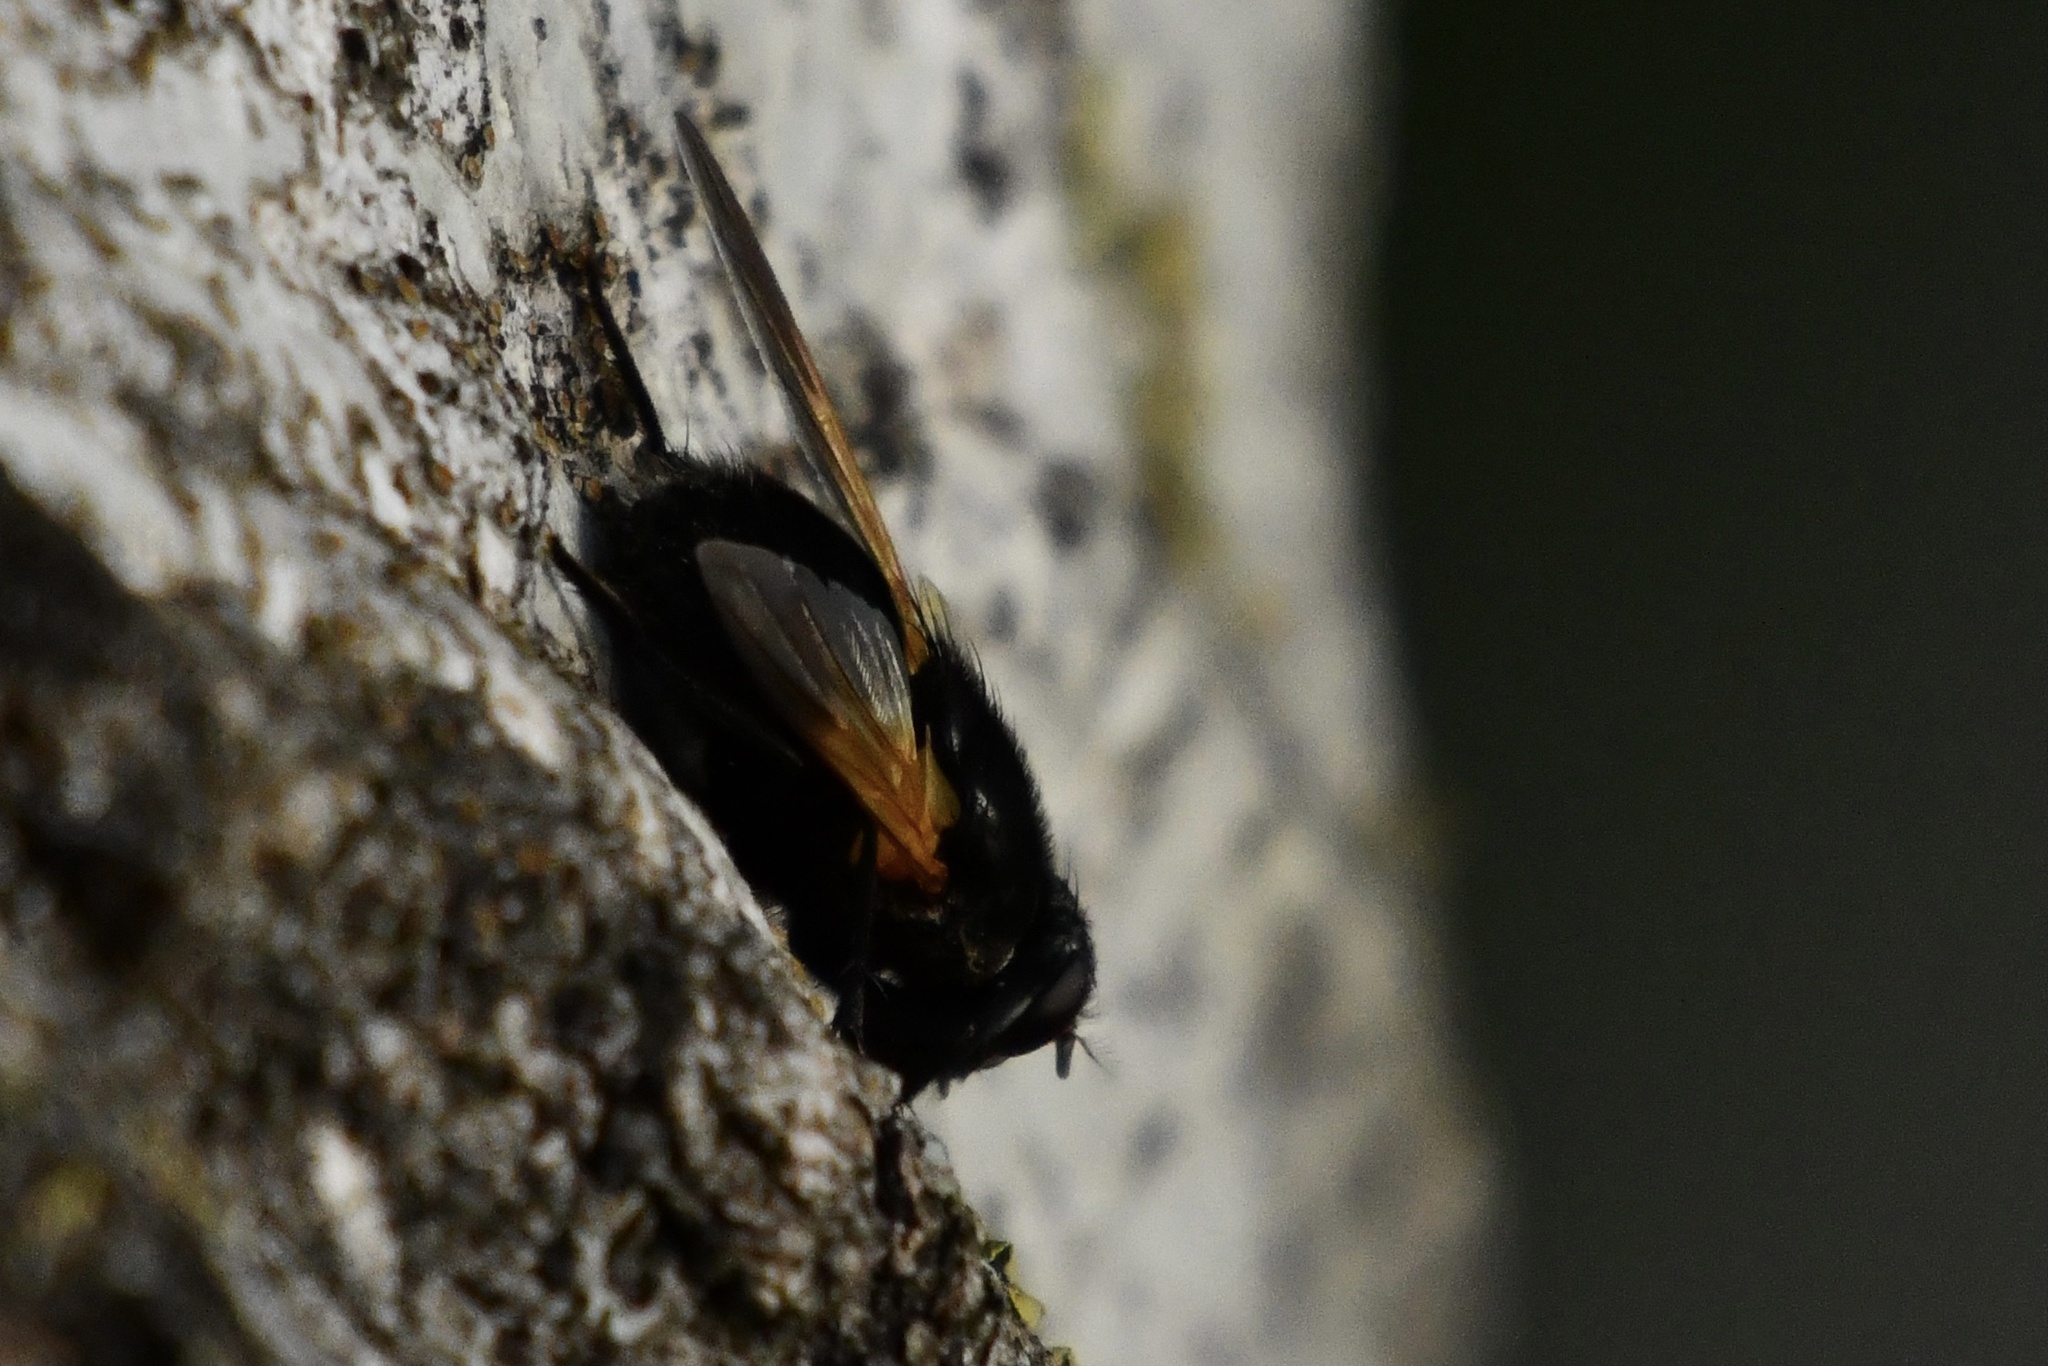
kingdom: Animalia
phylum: Arthropoda
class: Insecta
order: Diptera
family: Muscidae
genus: Mesembrina
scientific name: Mesembrina meridiana
